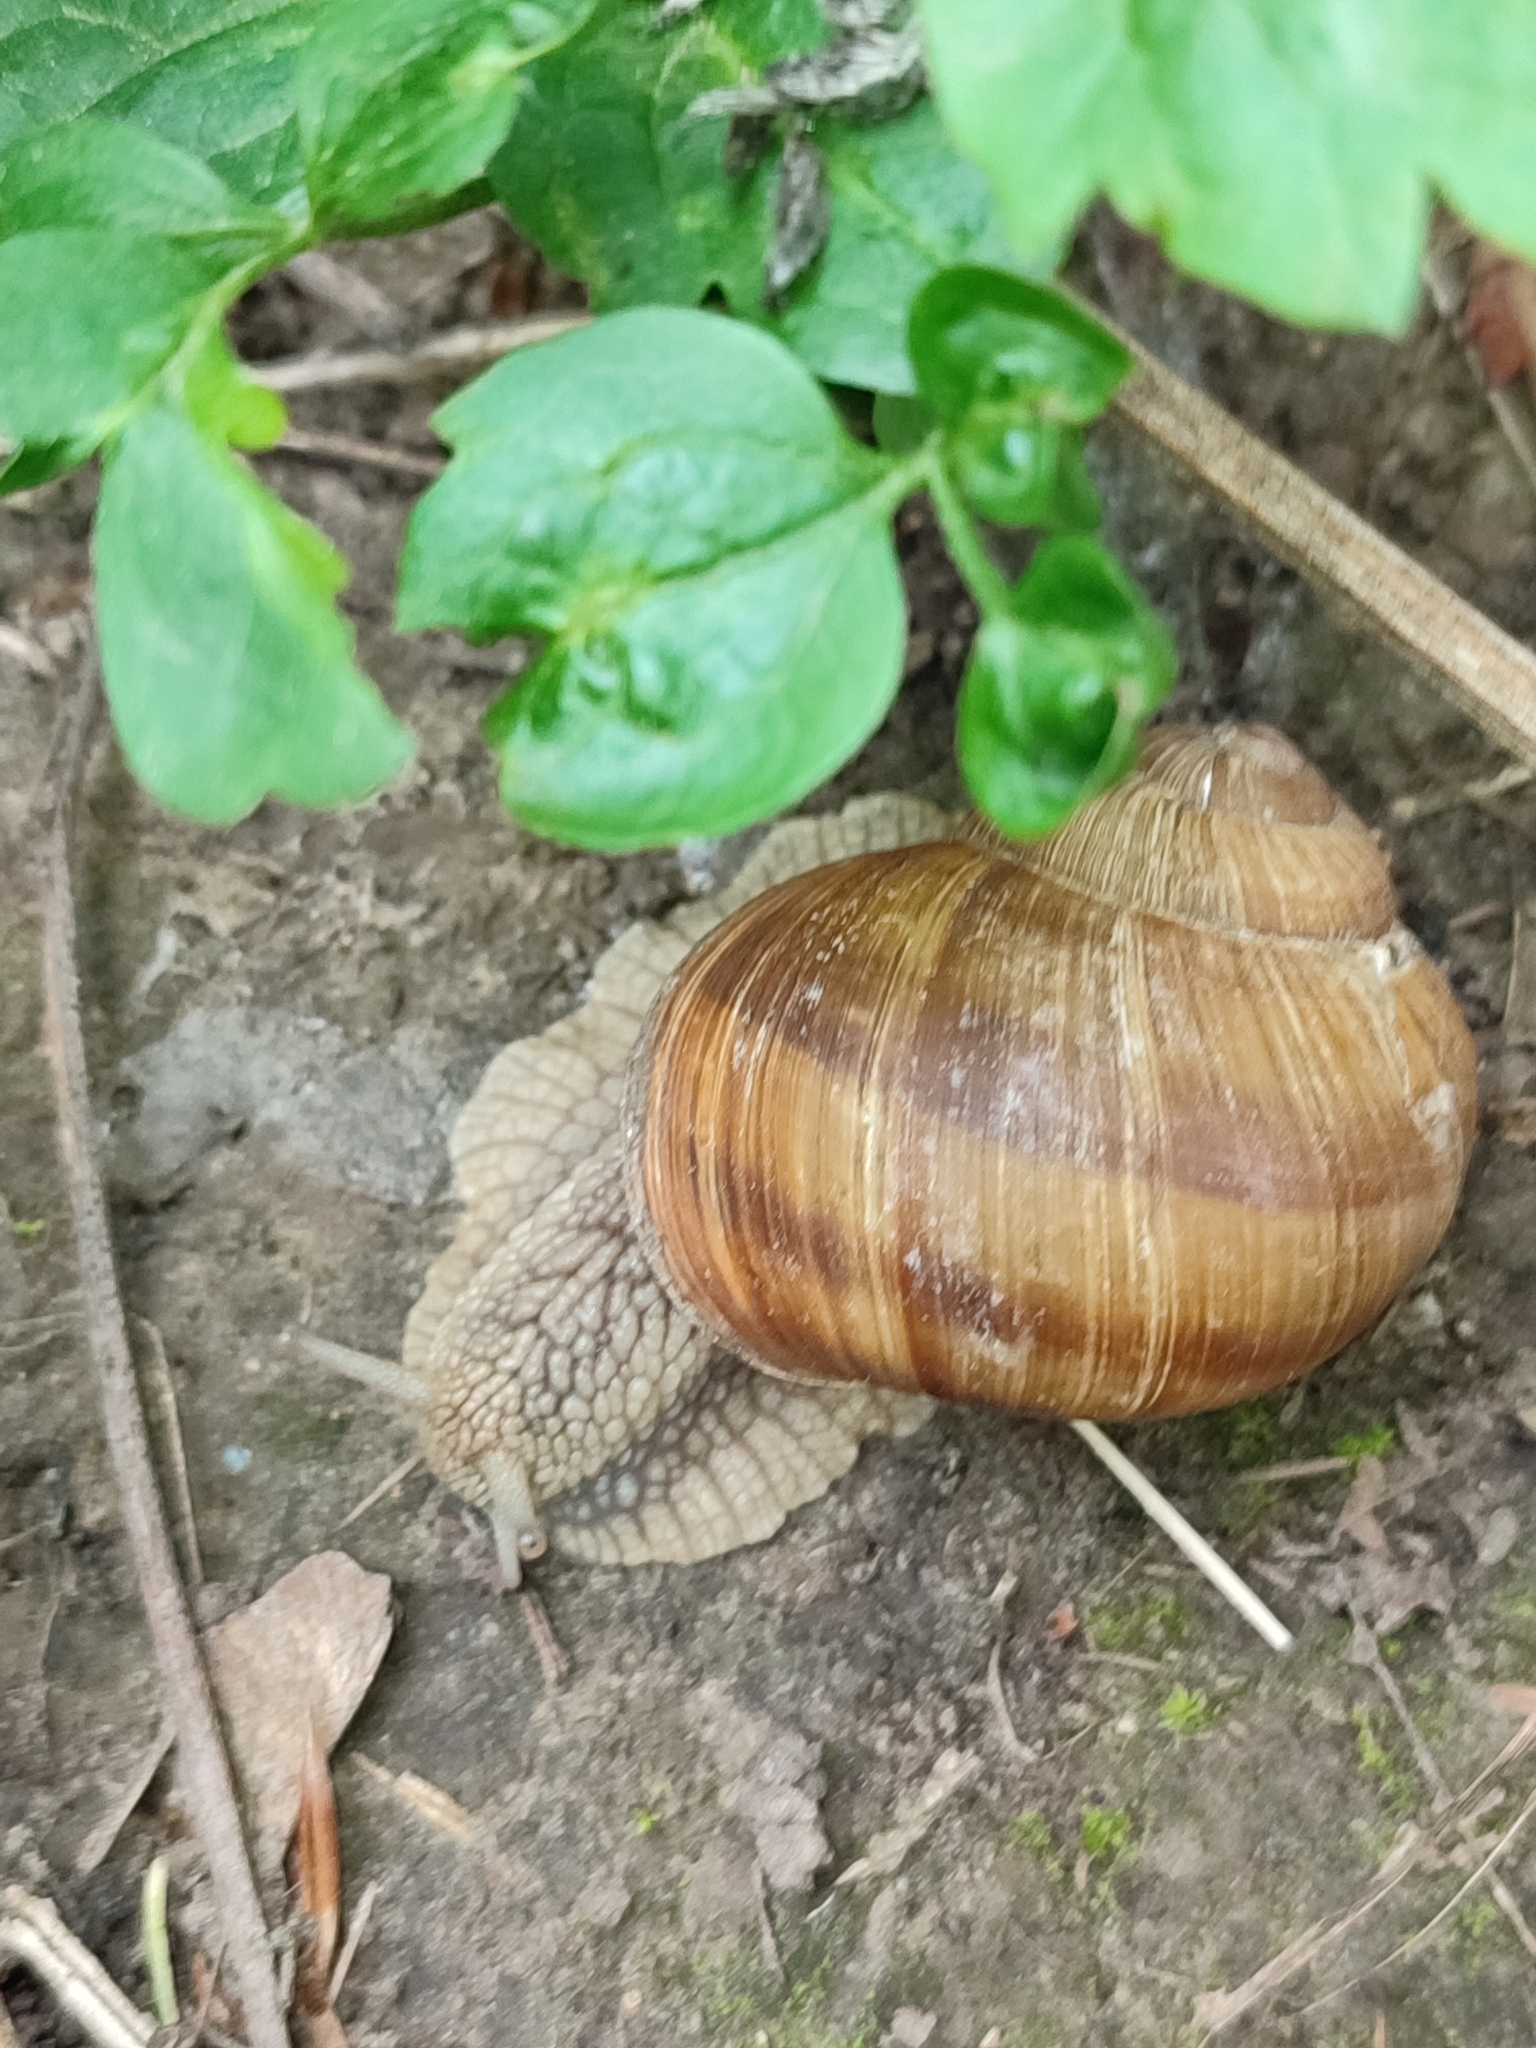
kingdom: Animalia
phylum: Mollusca
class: Gastropoda
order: Stylommatophora
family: Helicidae
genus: Helix
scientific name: Helix pomatia
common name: Roman snail
